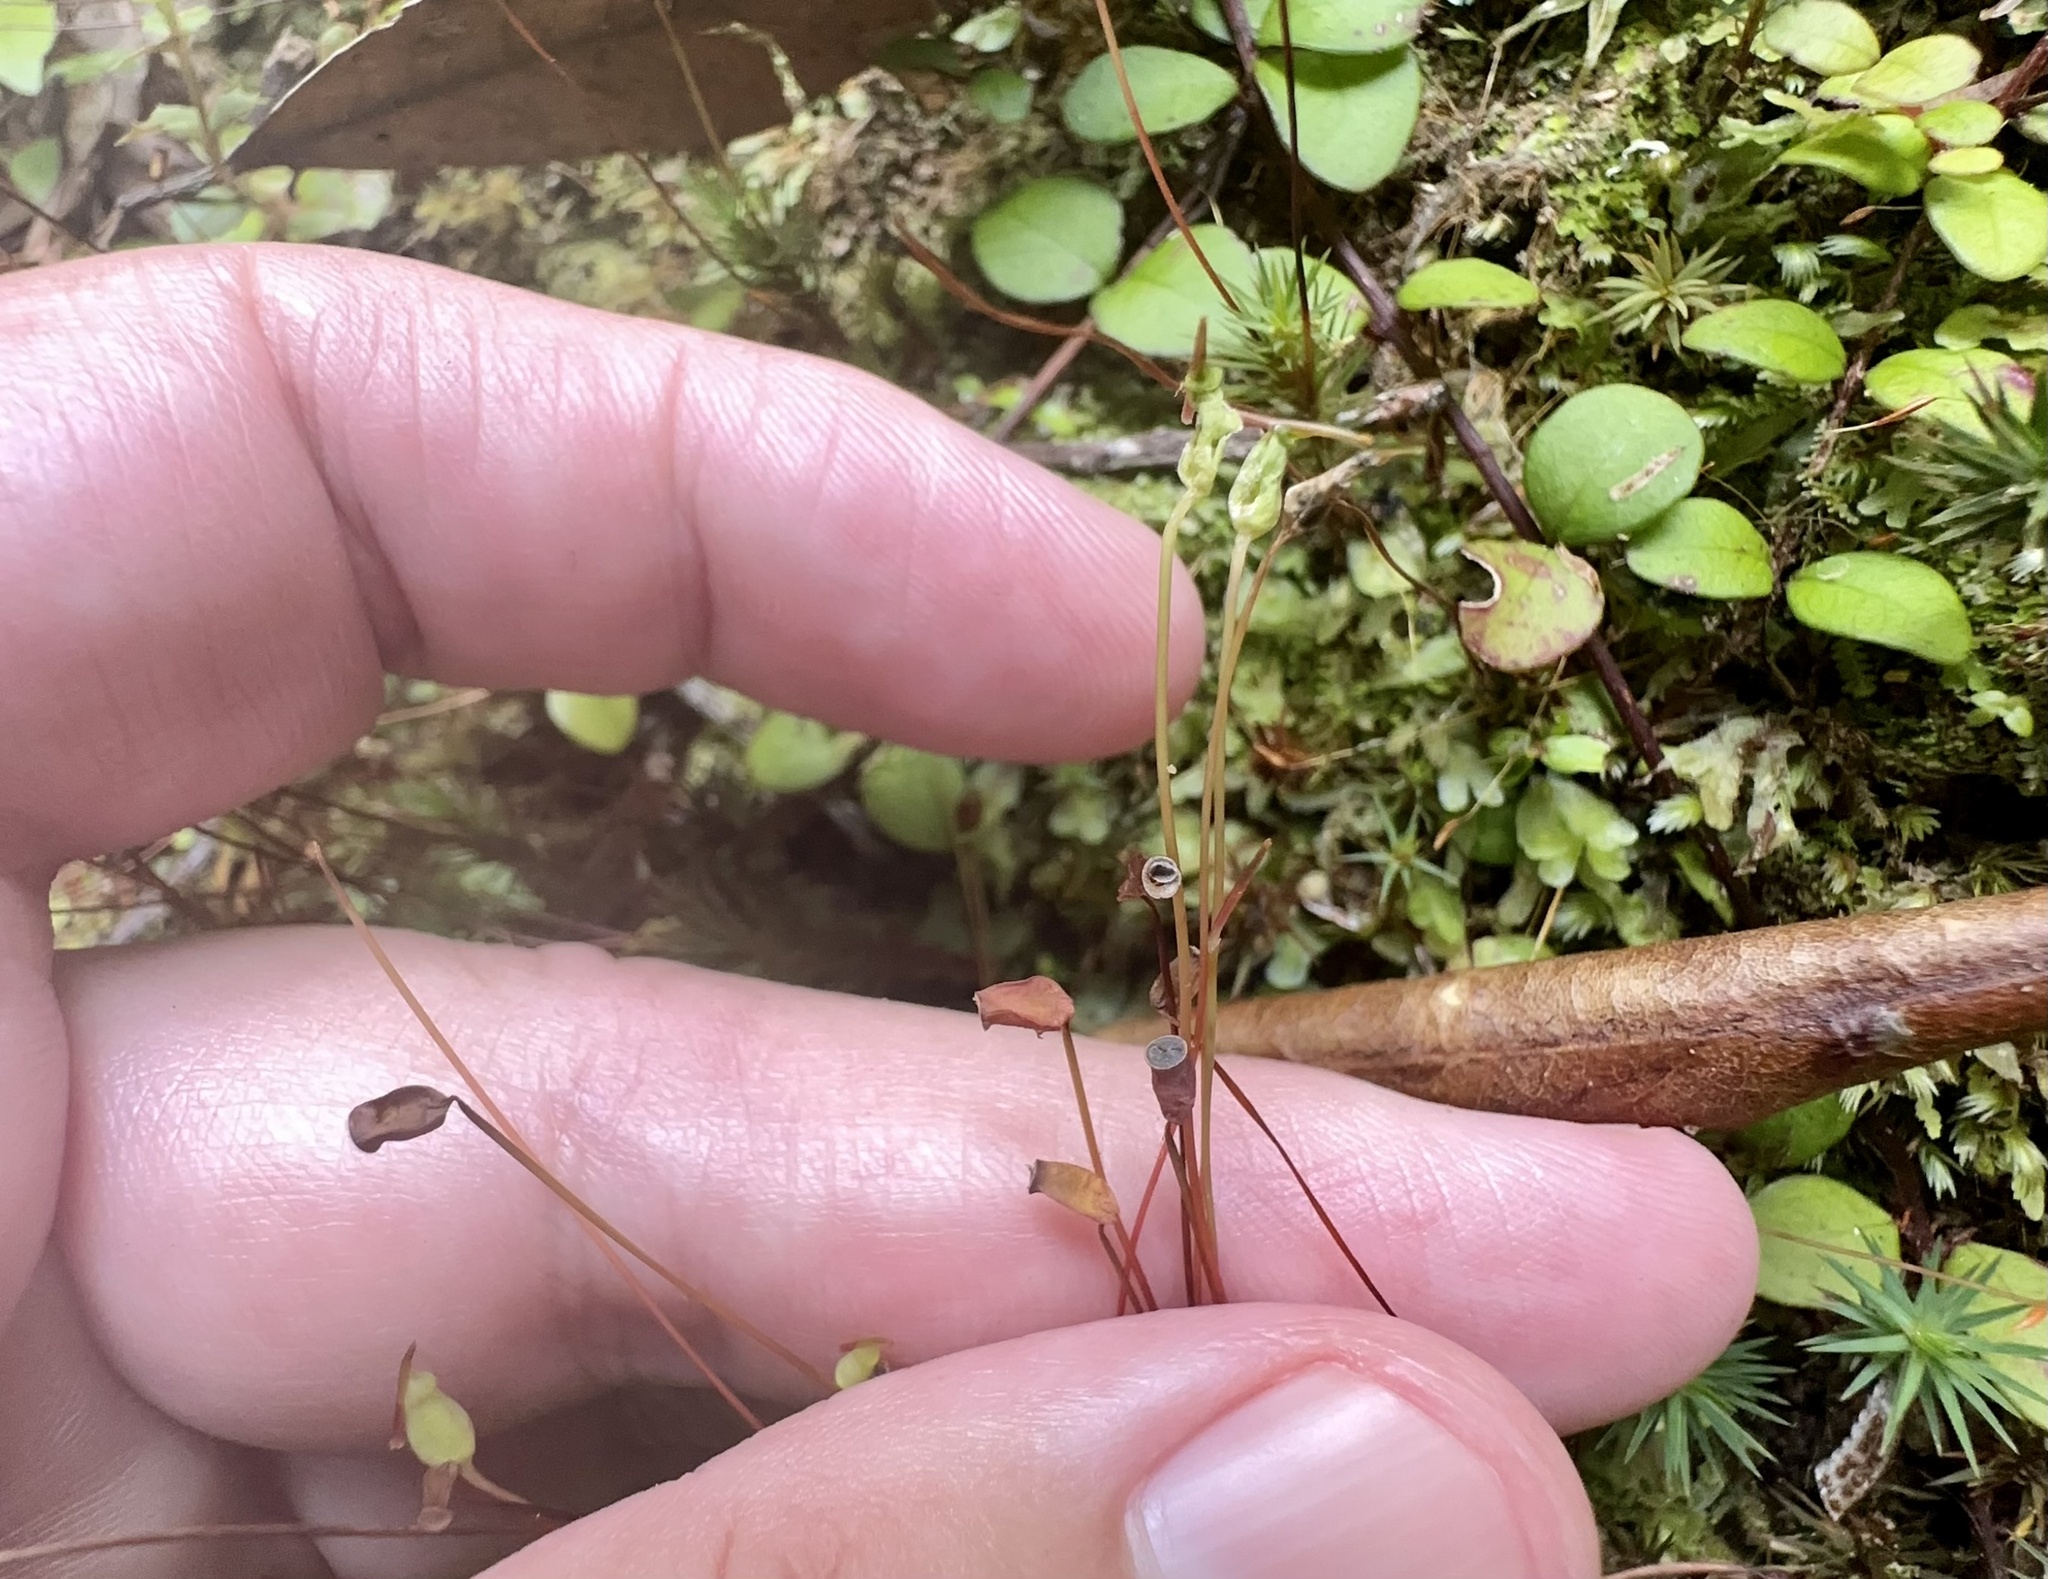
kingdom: Plantae
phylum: Bryophyta
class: Polytrichopsida
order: Polytrichales
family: Polytrichaceae
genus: Polytrichadelphus
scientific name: Polytrichadelphus magellanicus
